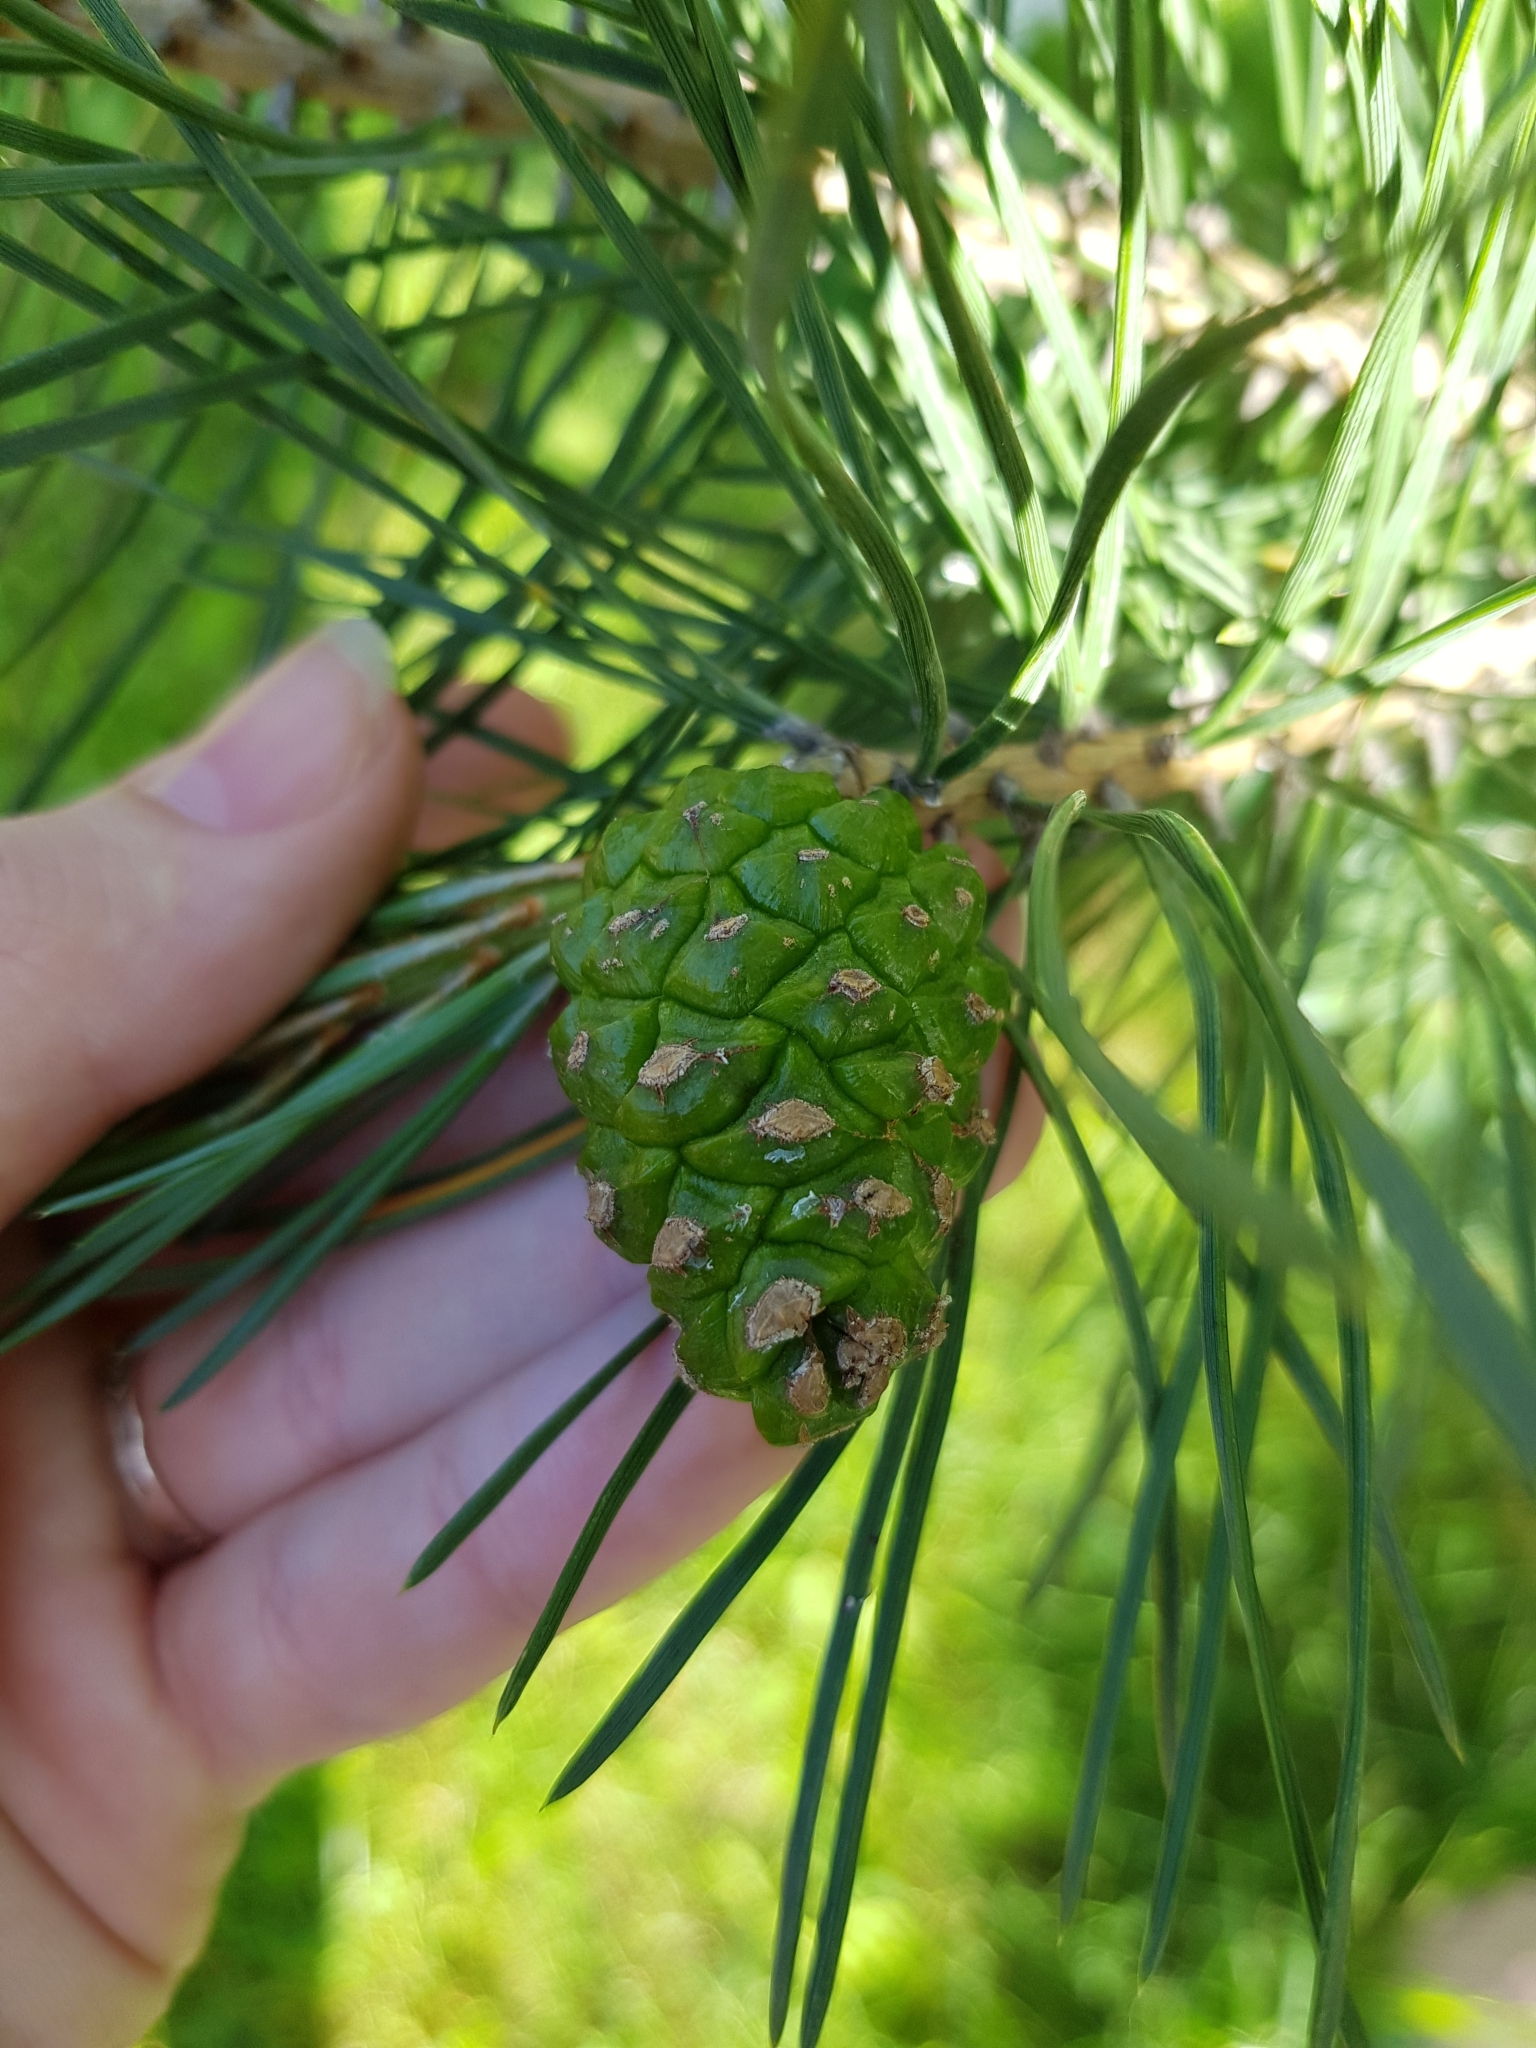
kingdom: Plantae
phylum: Tracheophyta
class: Pinopsida
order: Pinales
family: Pinaceae
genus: Pinus
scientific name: Pinus sylvestris
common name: Scots pine
